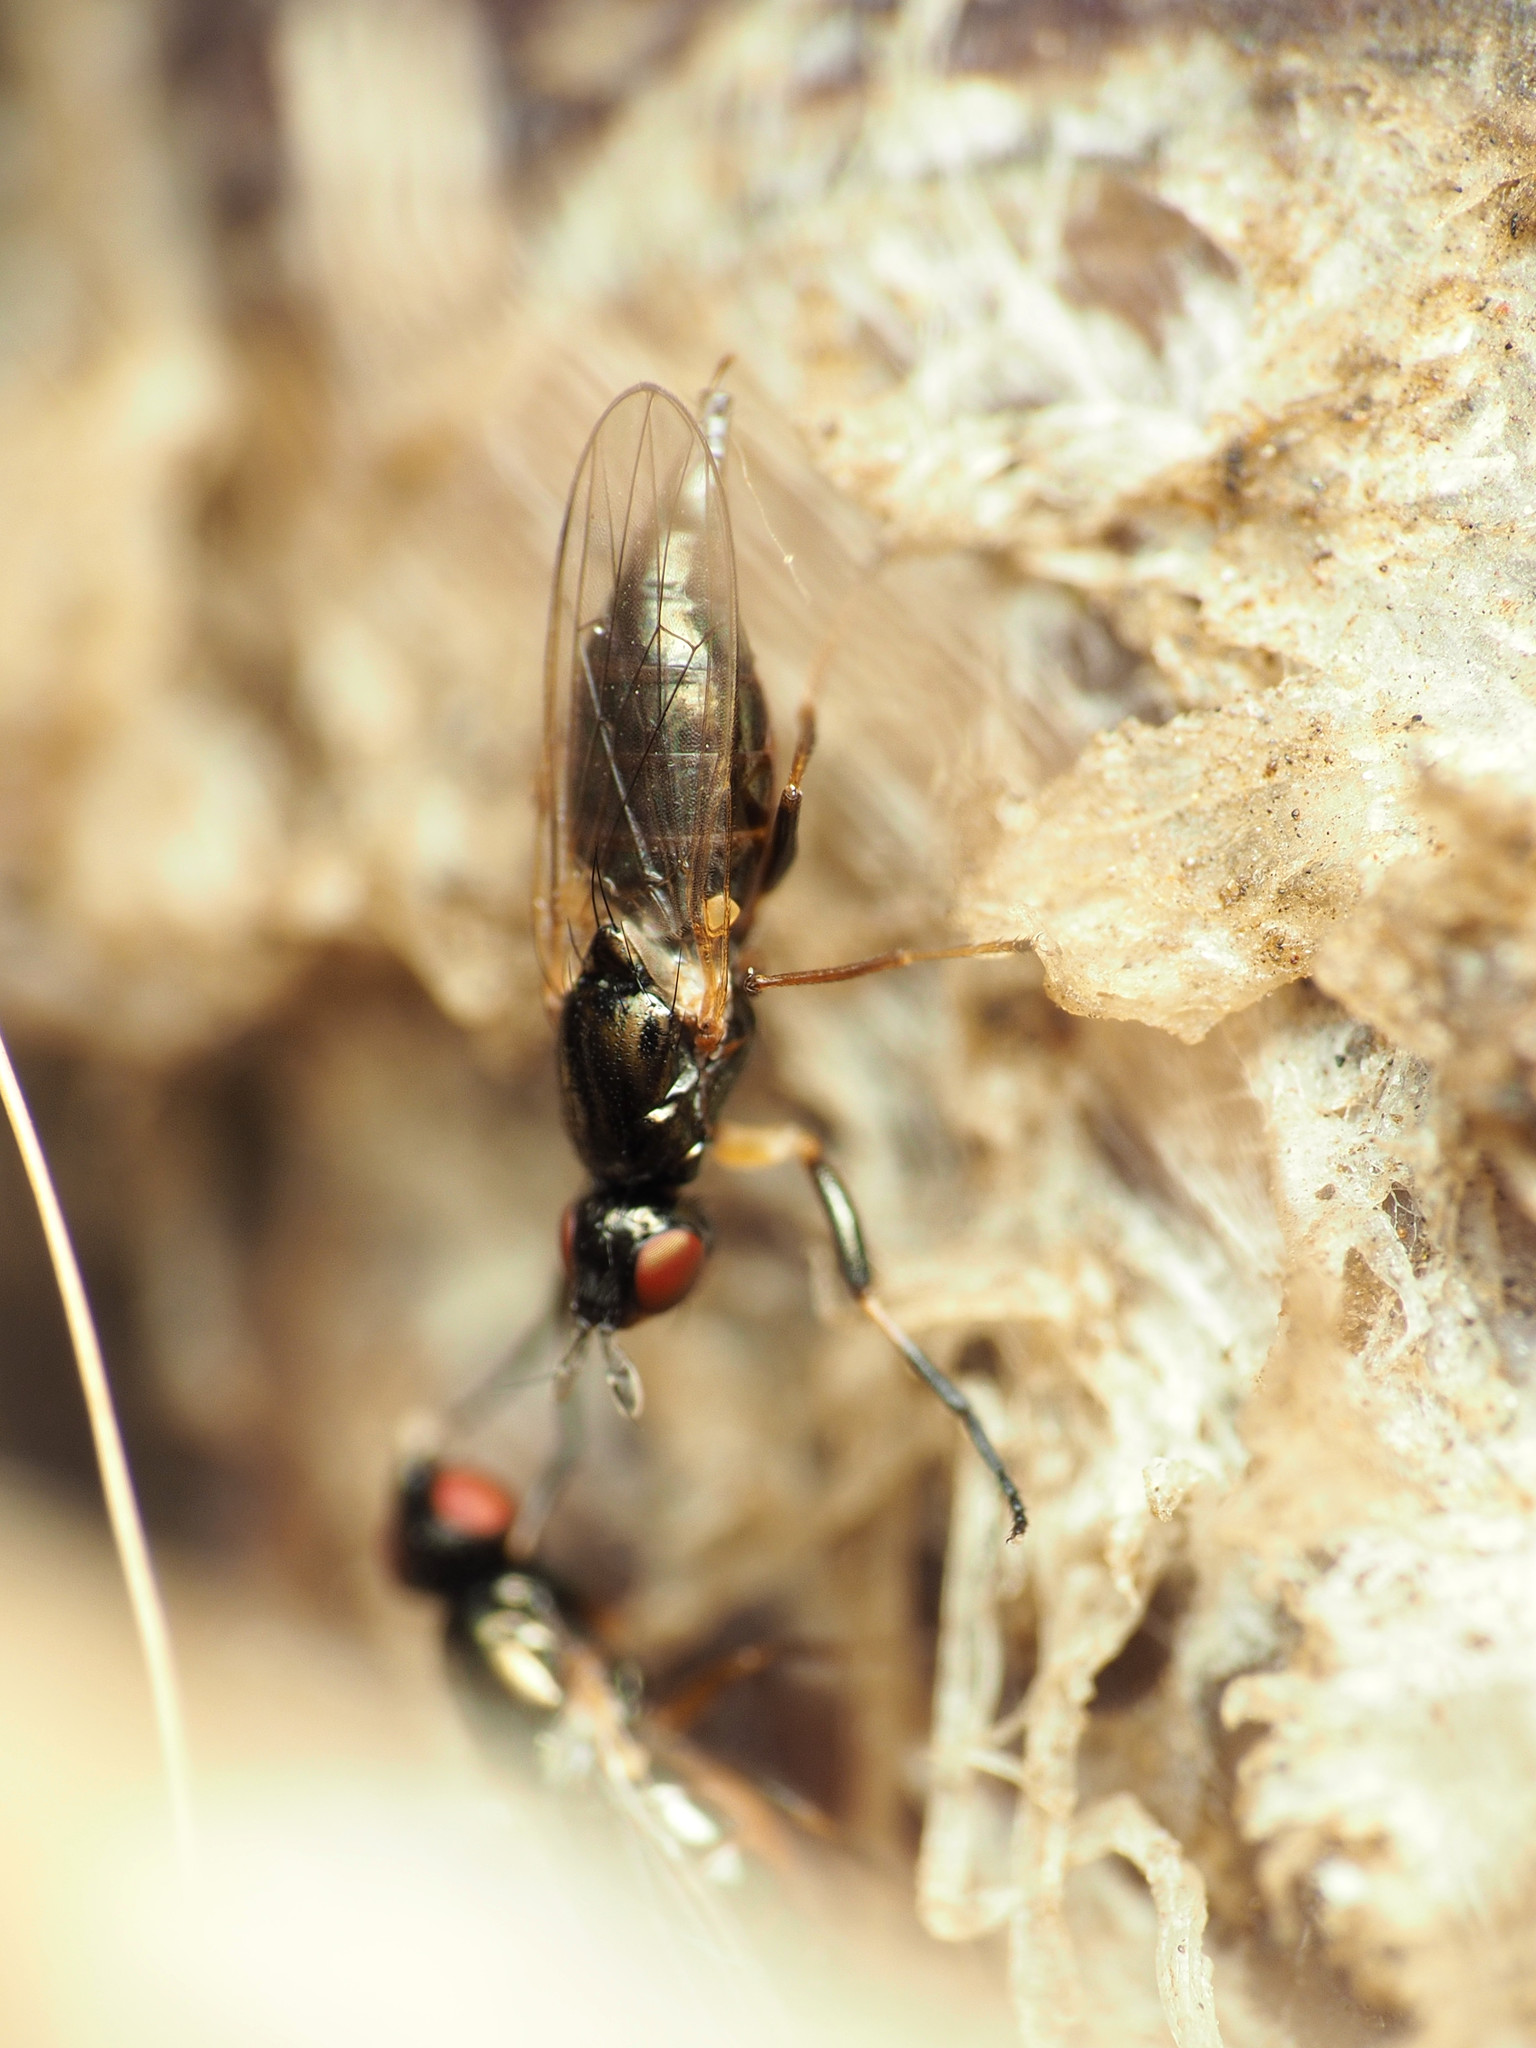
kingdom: Animalia
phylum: Arthropoda
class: Insecta
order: Diptera
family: Piophilidae
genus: Prochyliza
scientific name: Prochyliza xanthostoma
